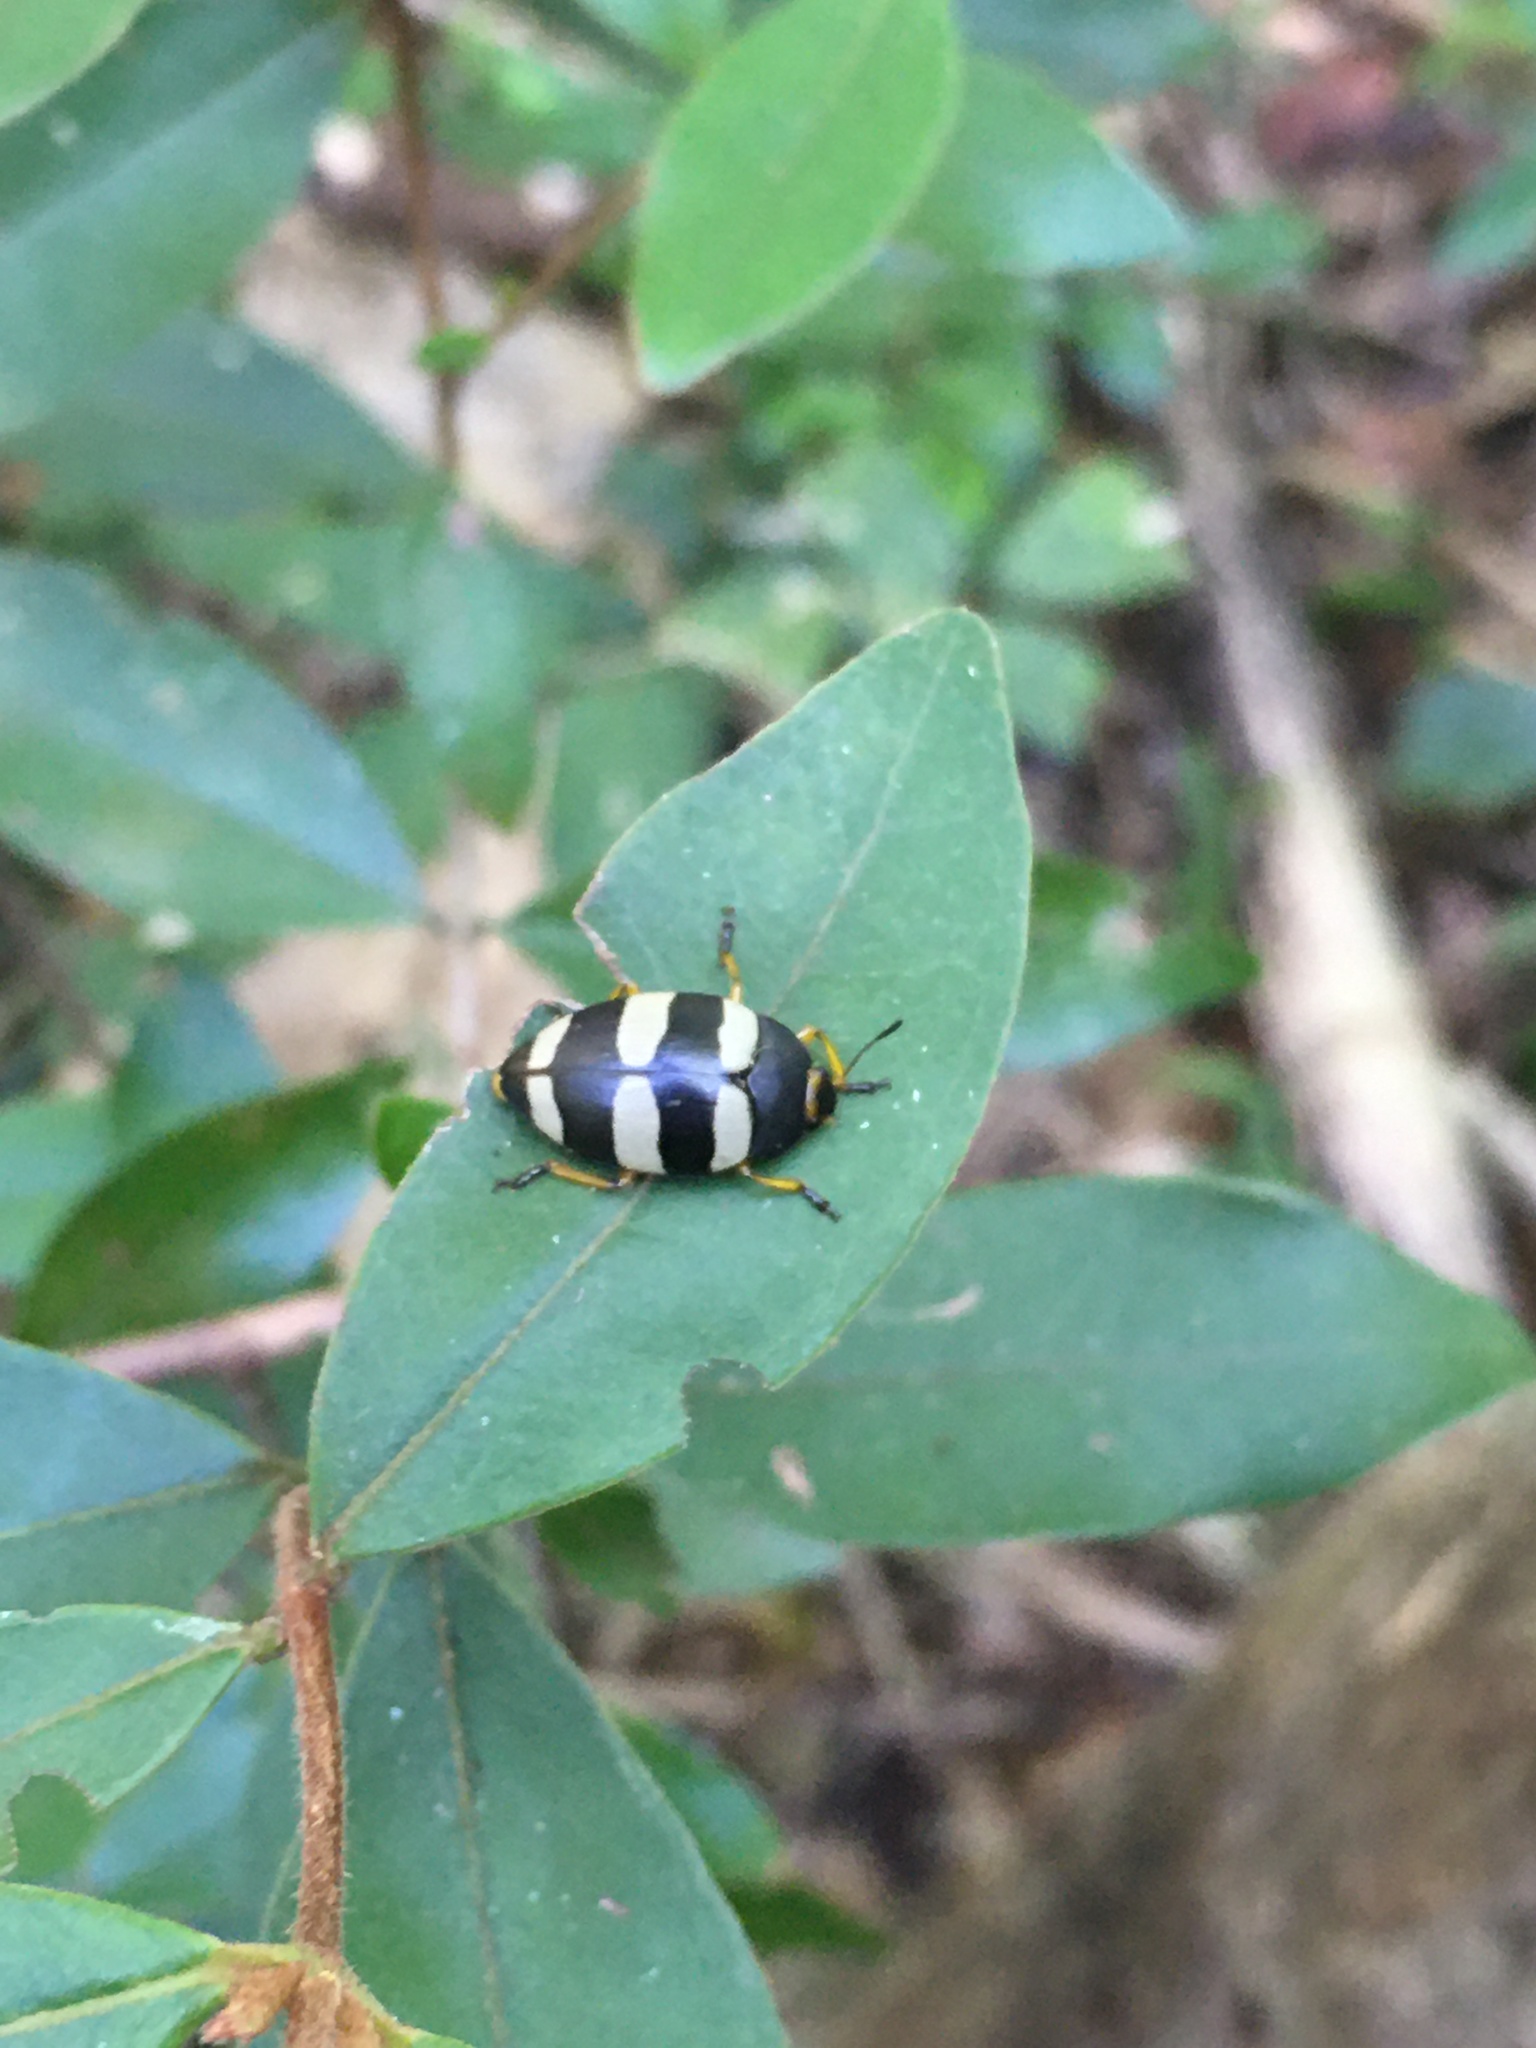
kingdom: Animalia
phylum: Arthropoda
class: Insecta
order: Coleoptera
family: Erotylidae
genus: Iphiclus
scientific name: Iphiclus
